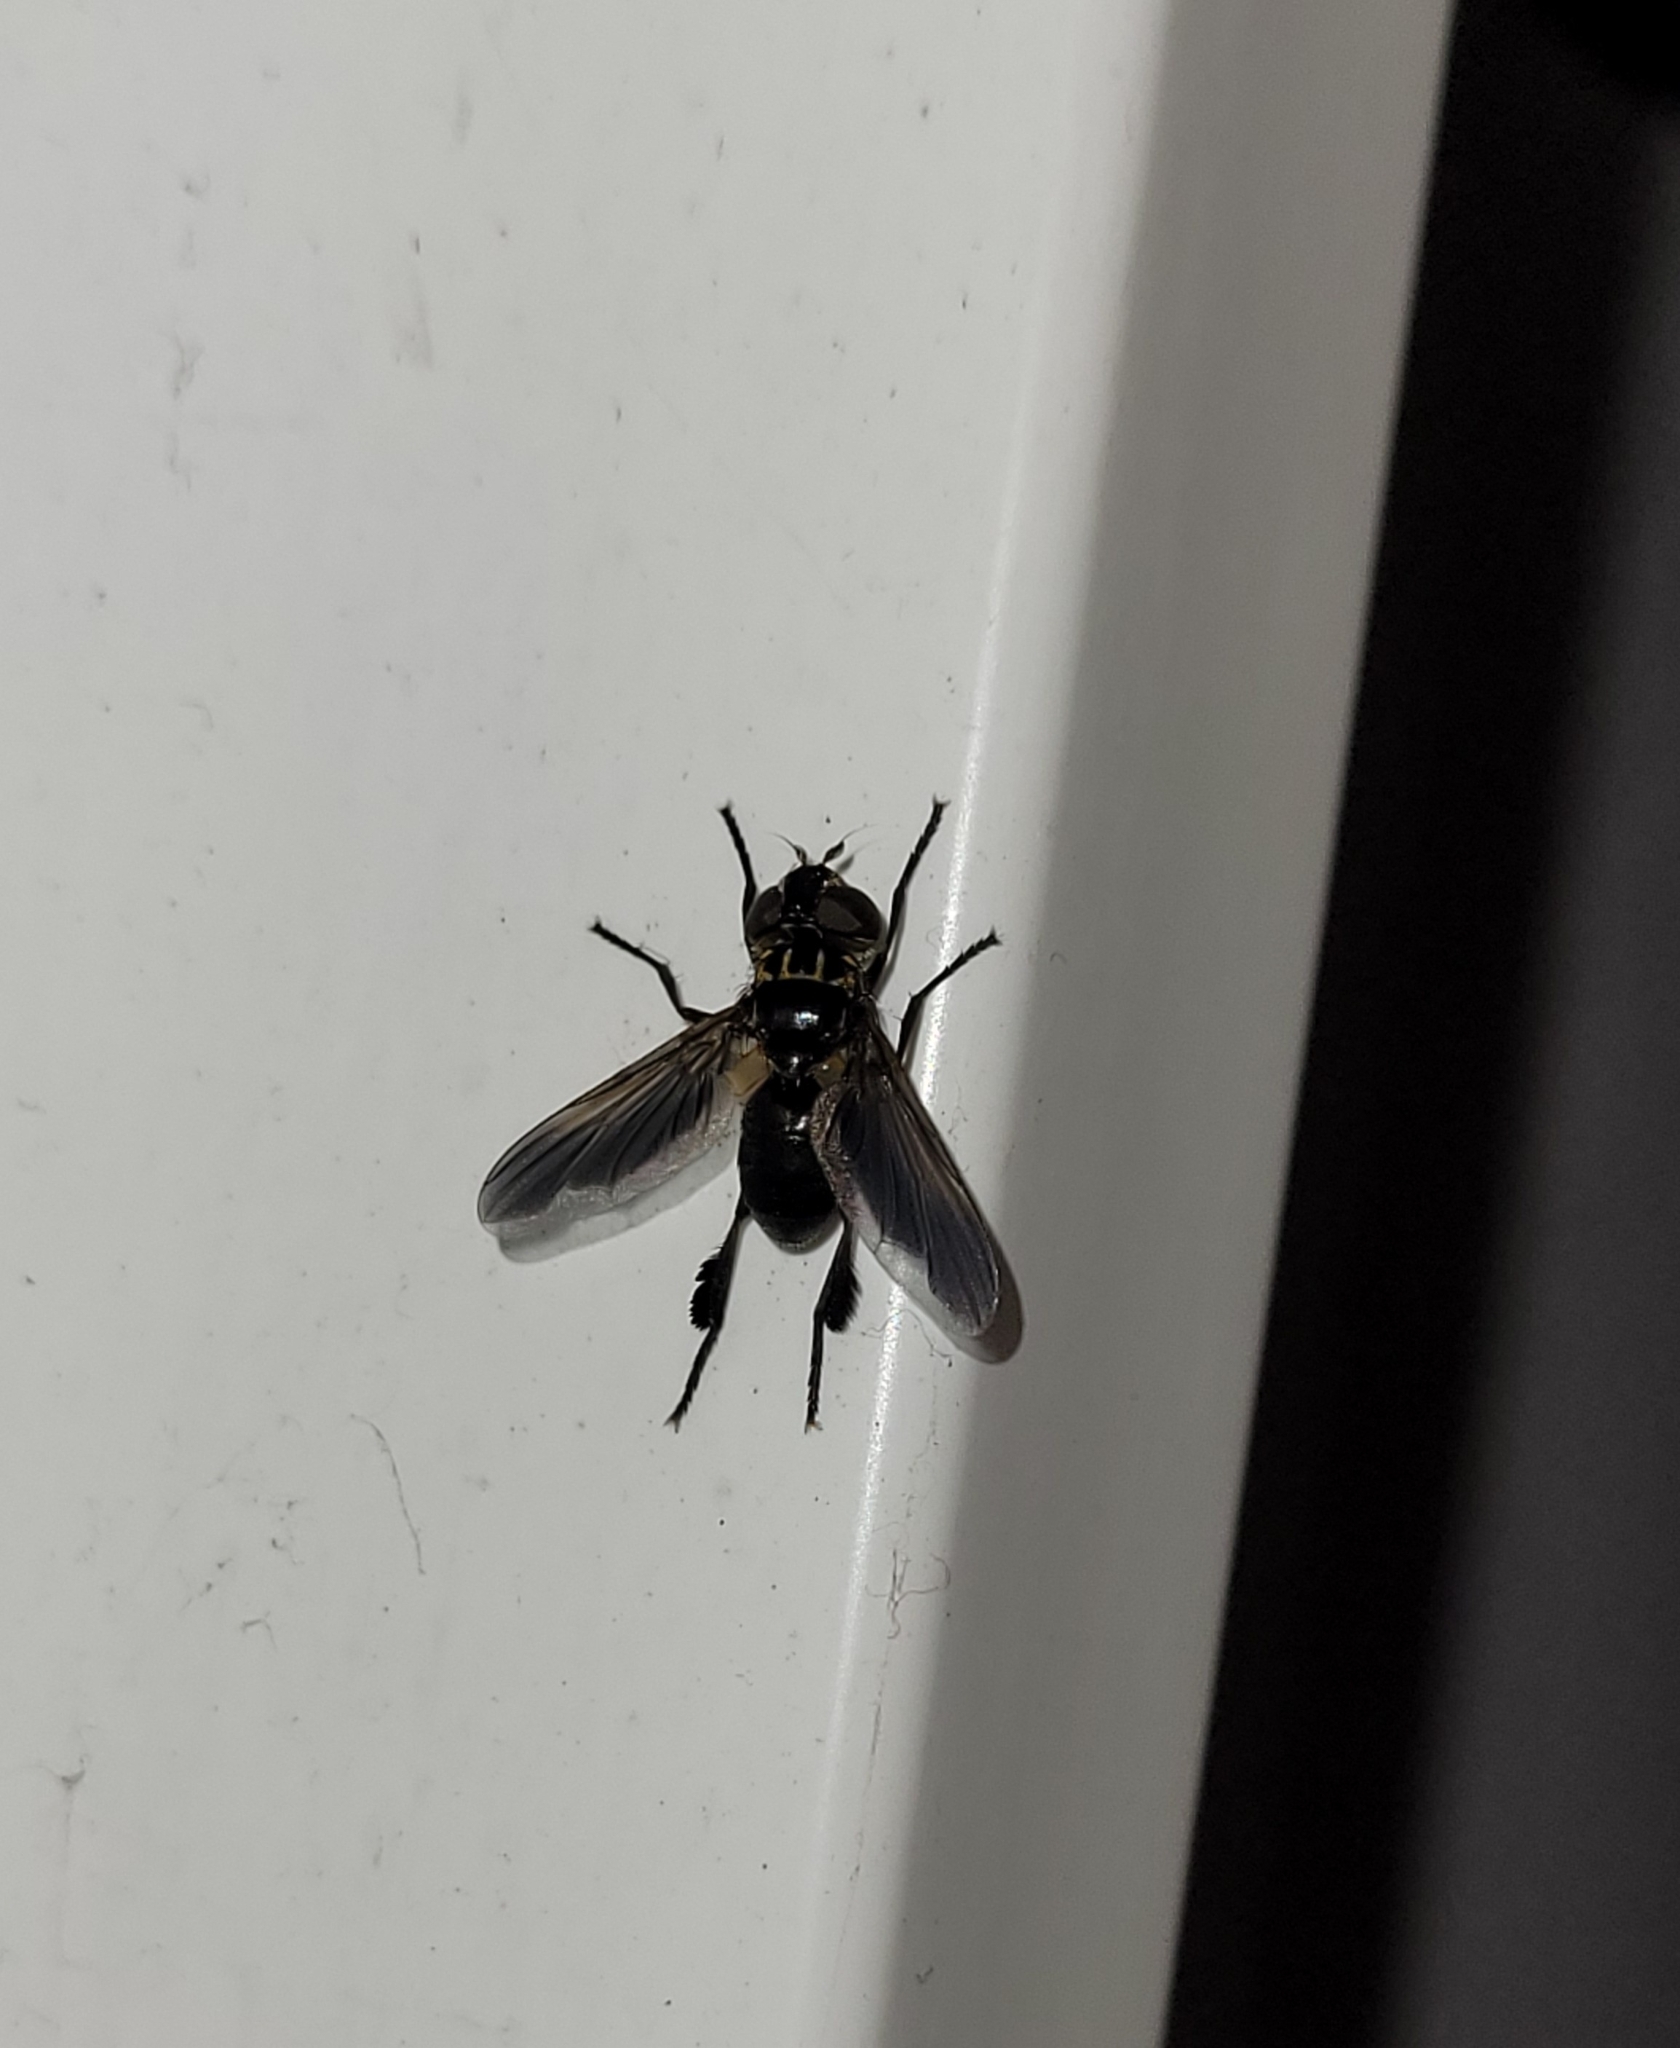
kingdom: Animalia
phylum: Arthropoda
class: Insecta
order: Diptera
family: Tachinidae
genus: Trichopoda
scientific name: Trichopoda pictipennis
